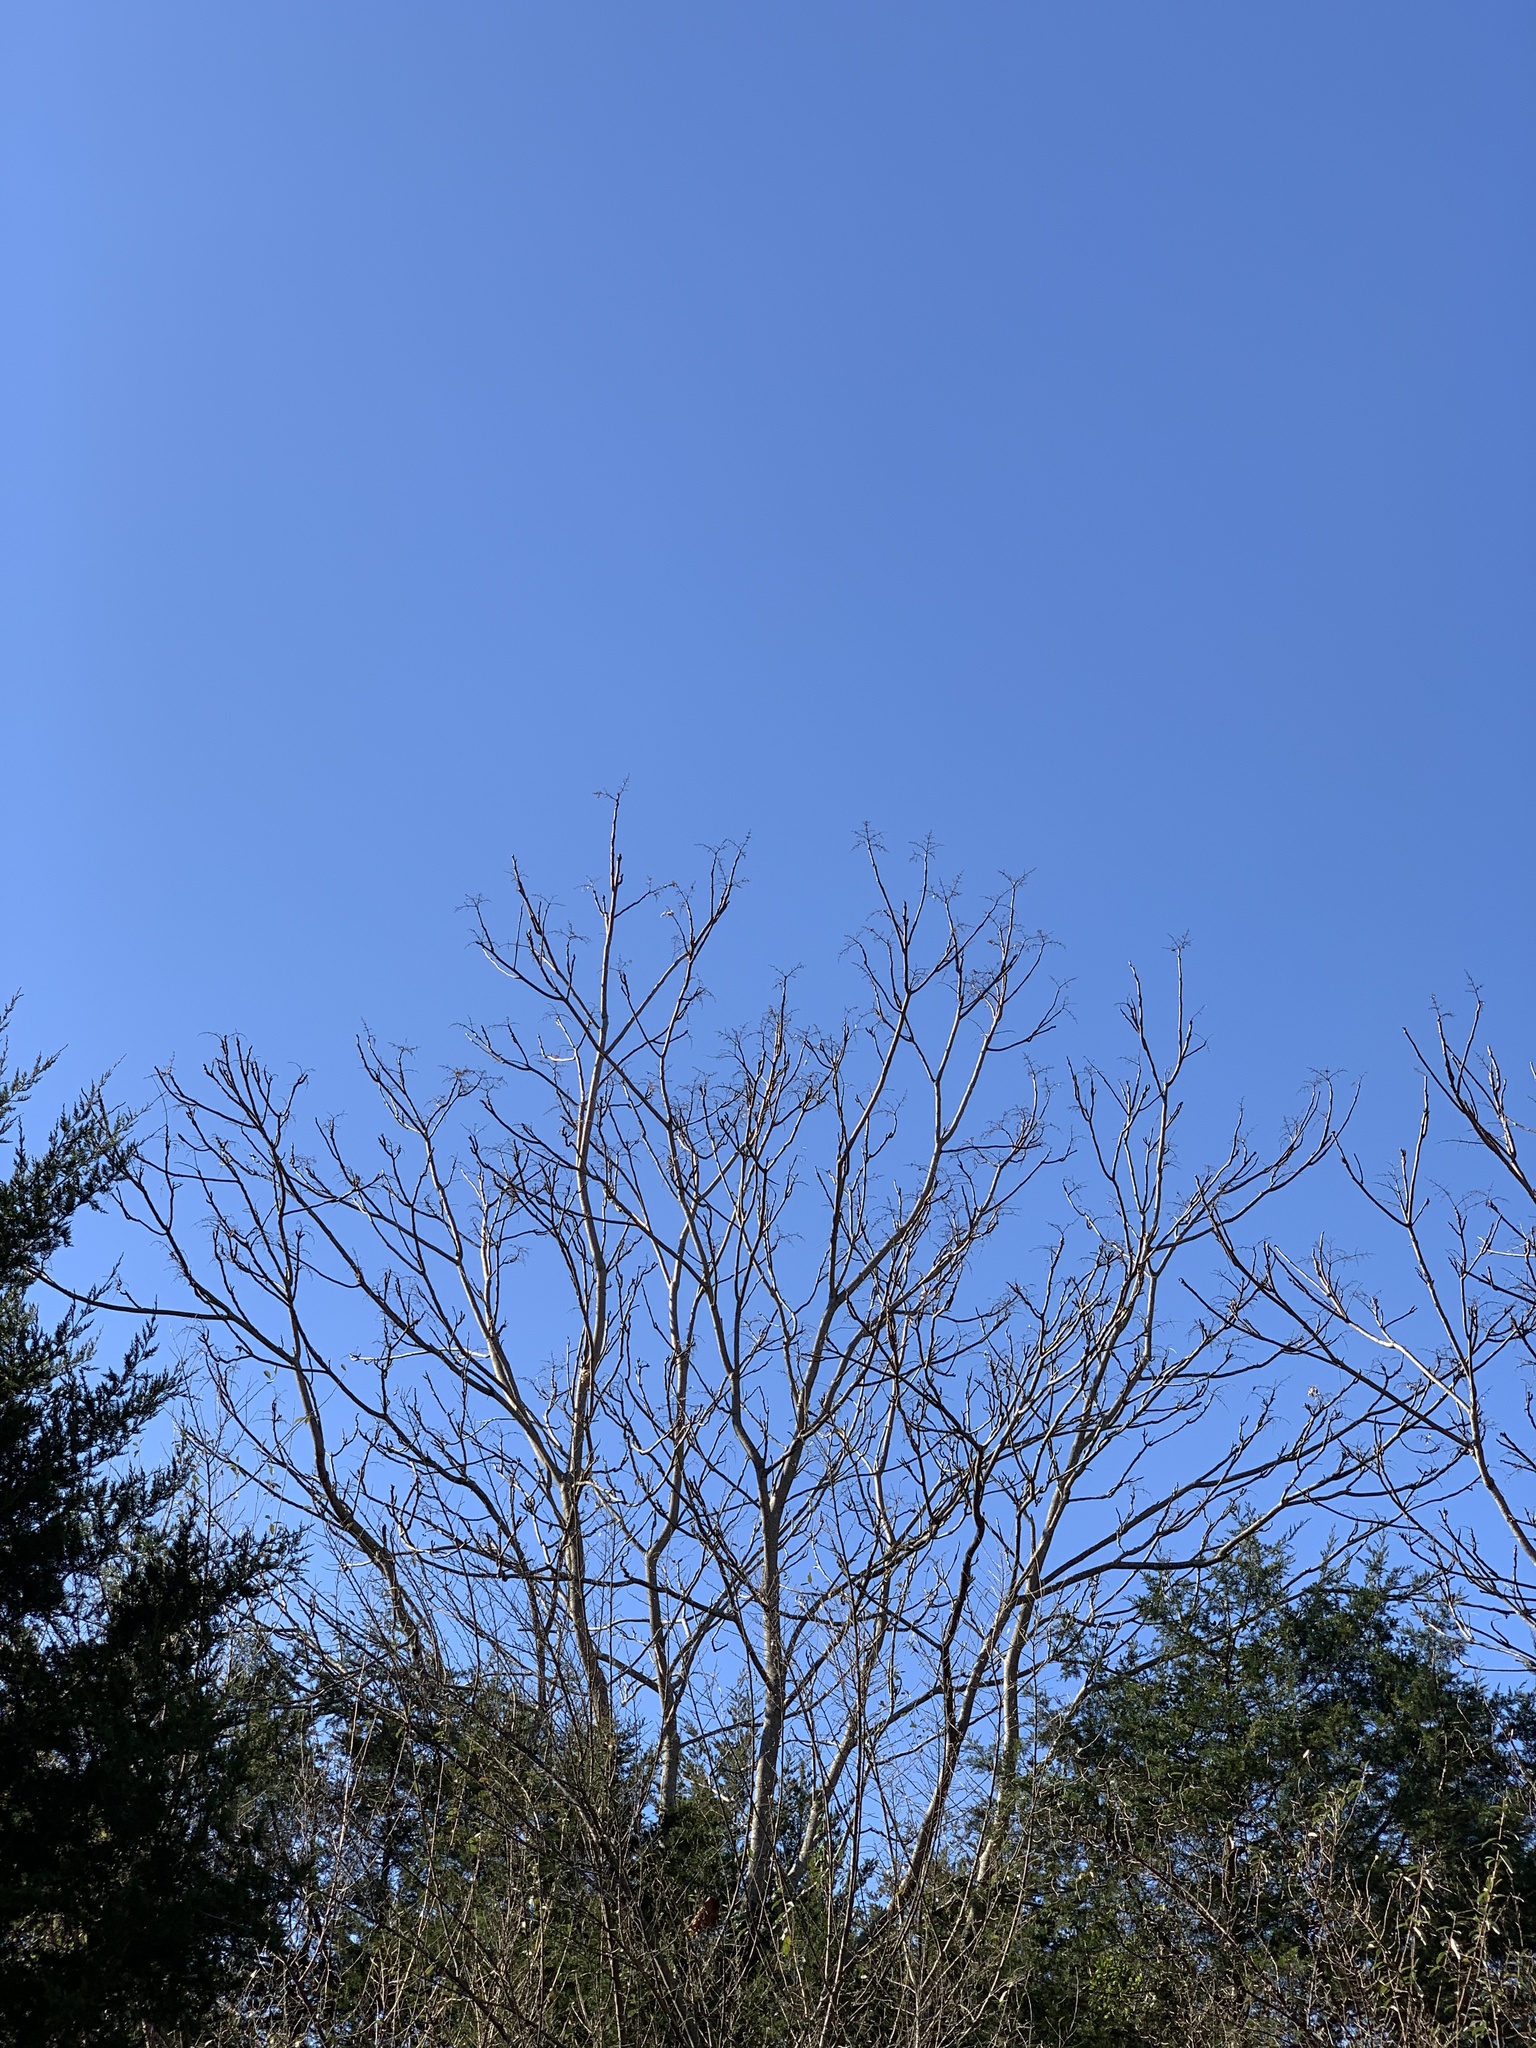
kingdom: Plantae
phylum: Tracheophyta
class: Magnoliopsida
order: Sapindales
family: Simaroubaceae
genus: Ailanthus
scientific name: Ailanthus altissima
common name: Tree-of-heaven
